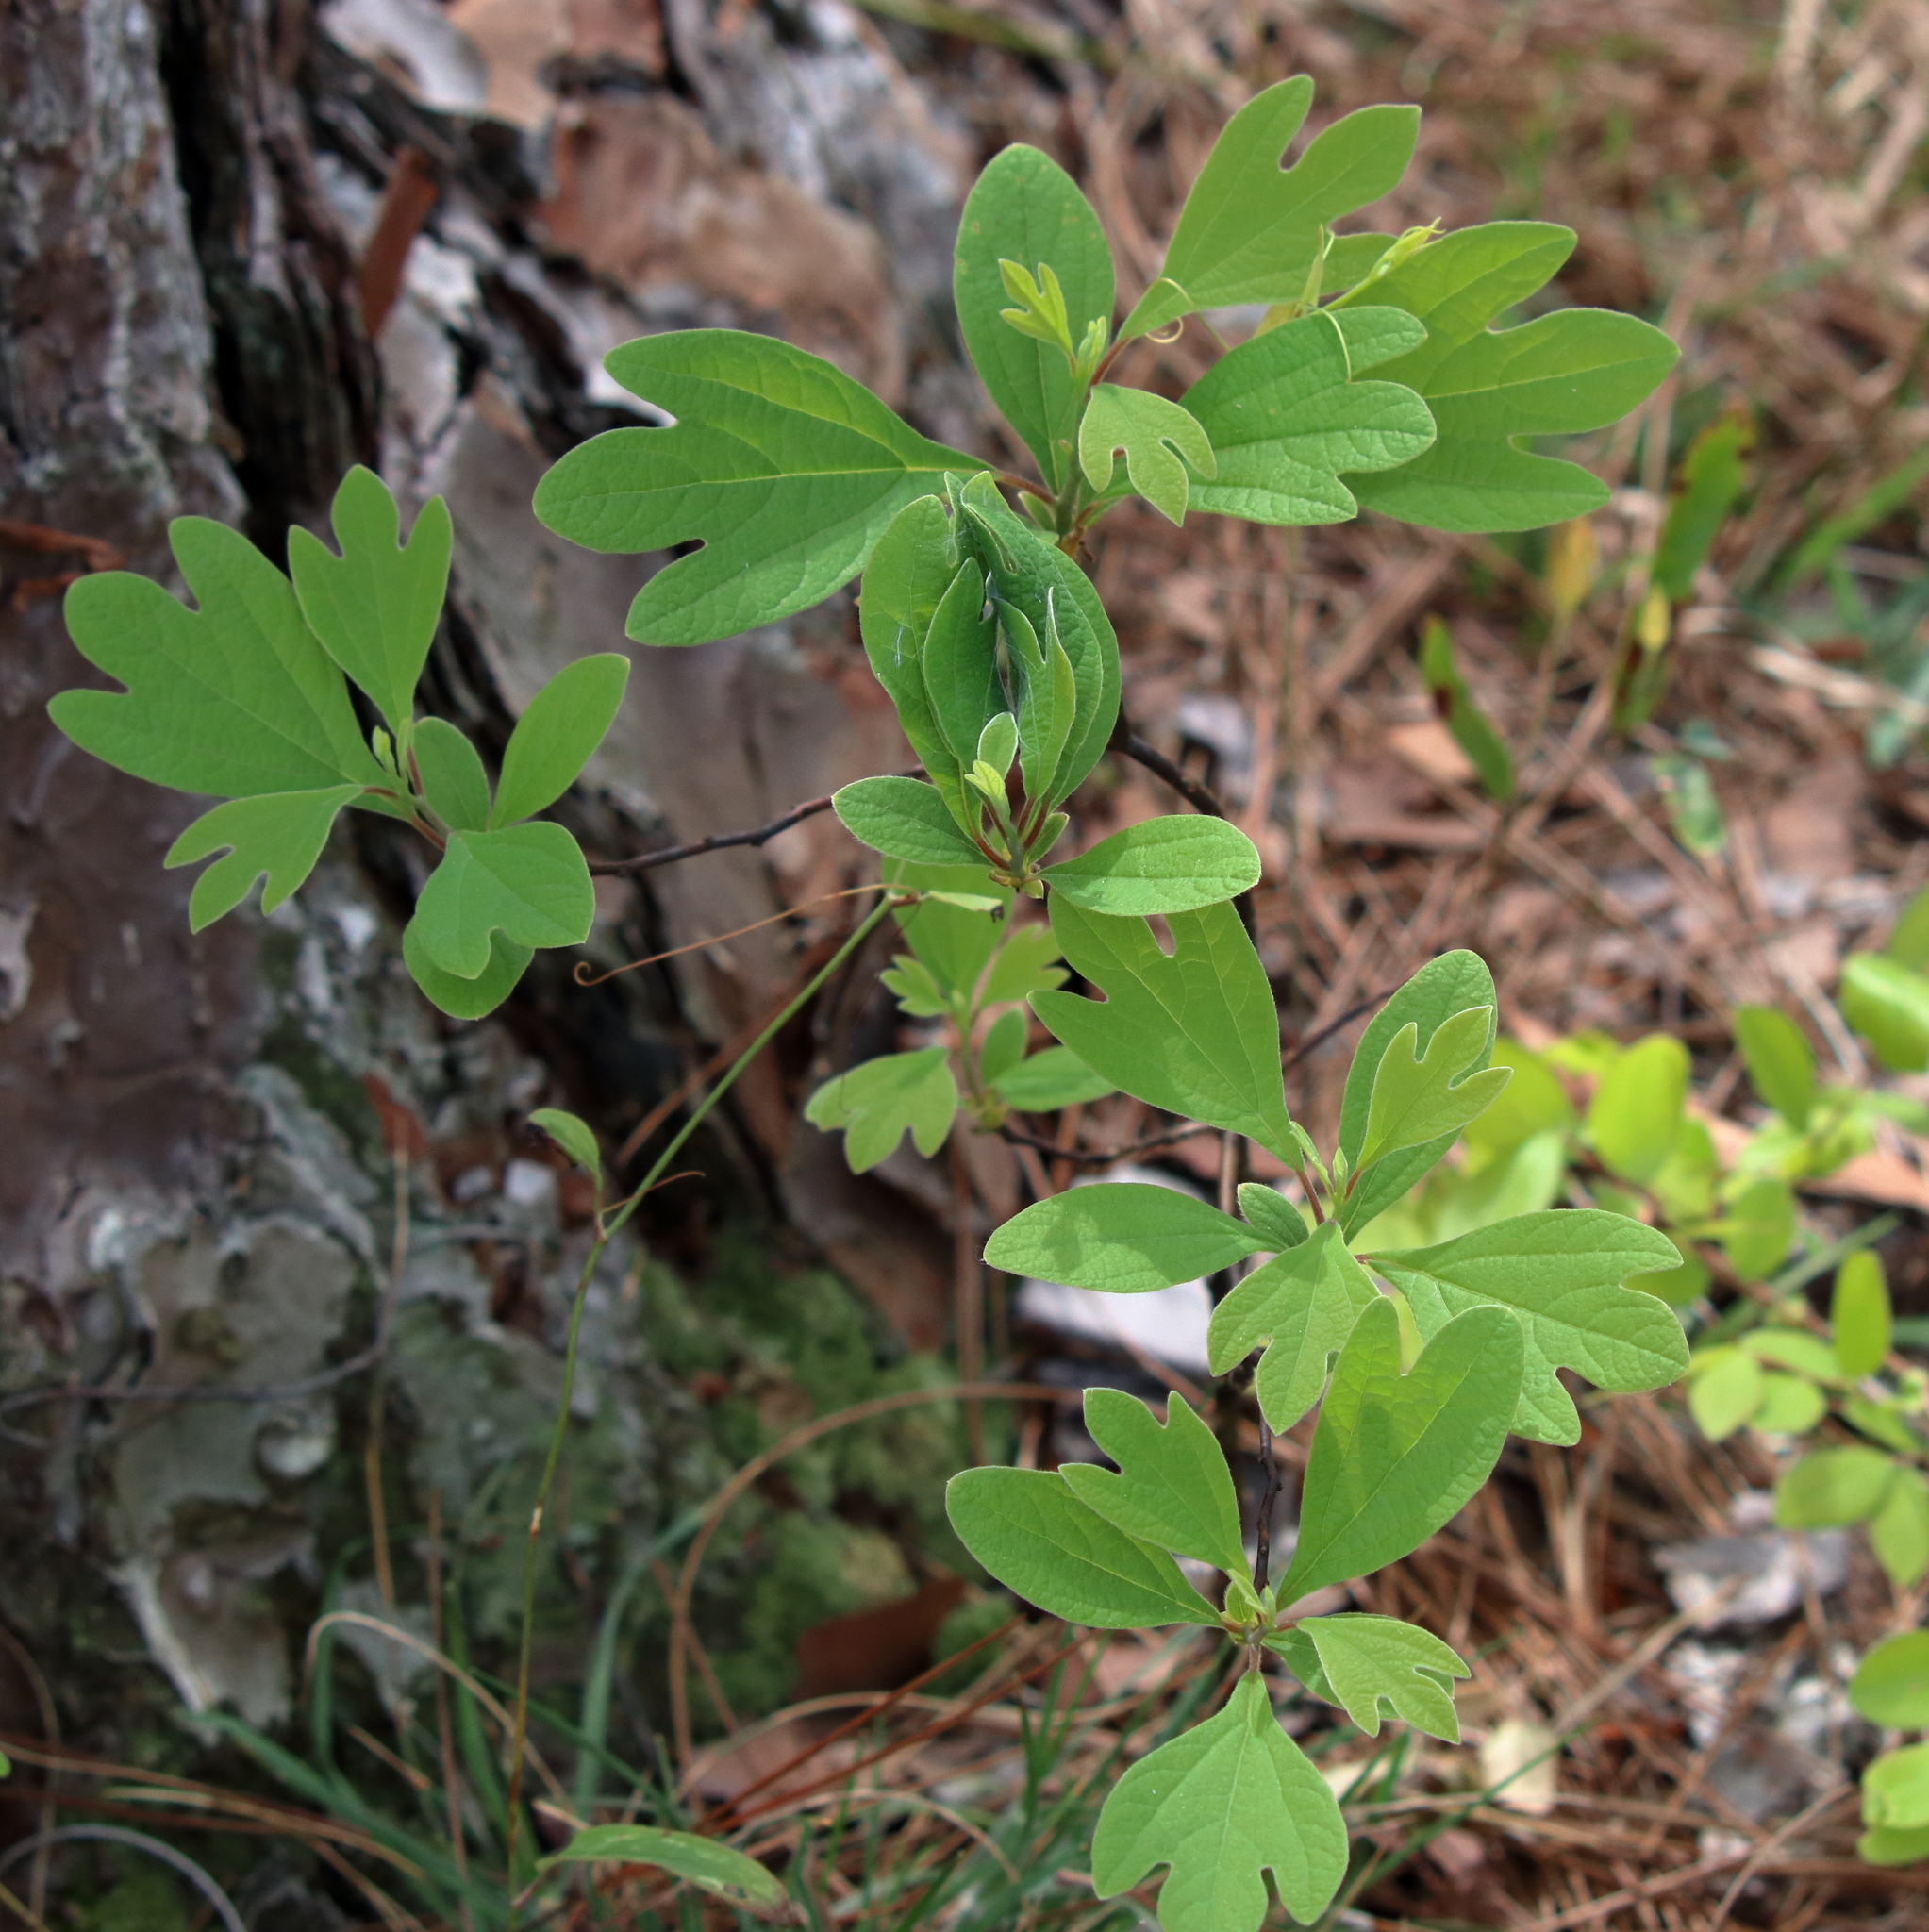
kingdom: Plantae
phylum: Tracheophyta
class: Magnoliopsida
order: Laurales
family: Lauraceae
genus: Sassafras
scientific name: Sassafras albidum
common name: Sassafras
